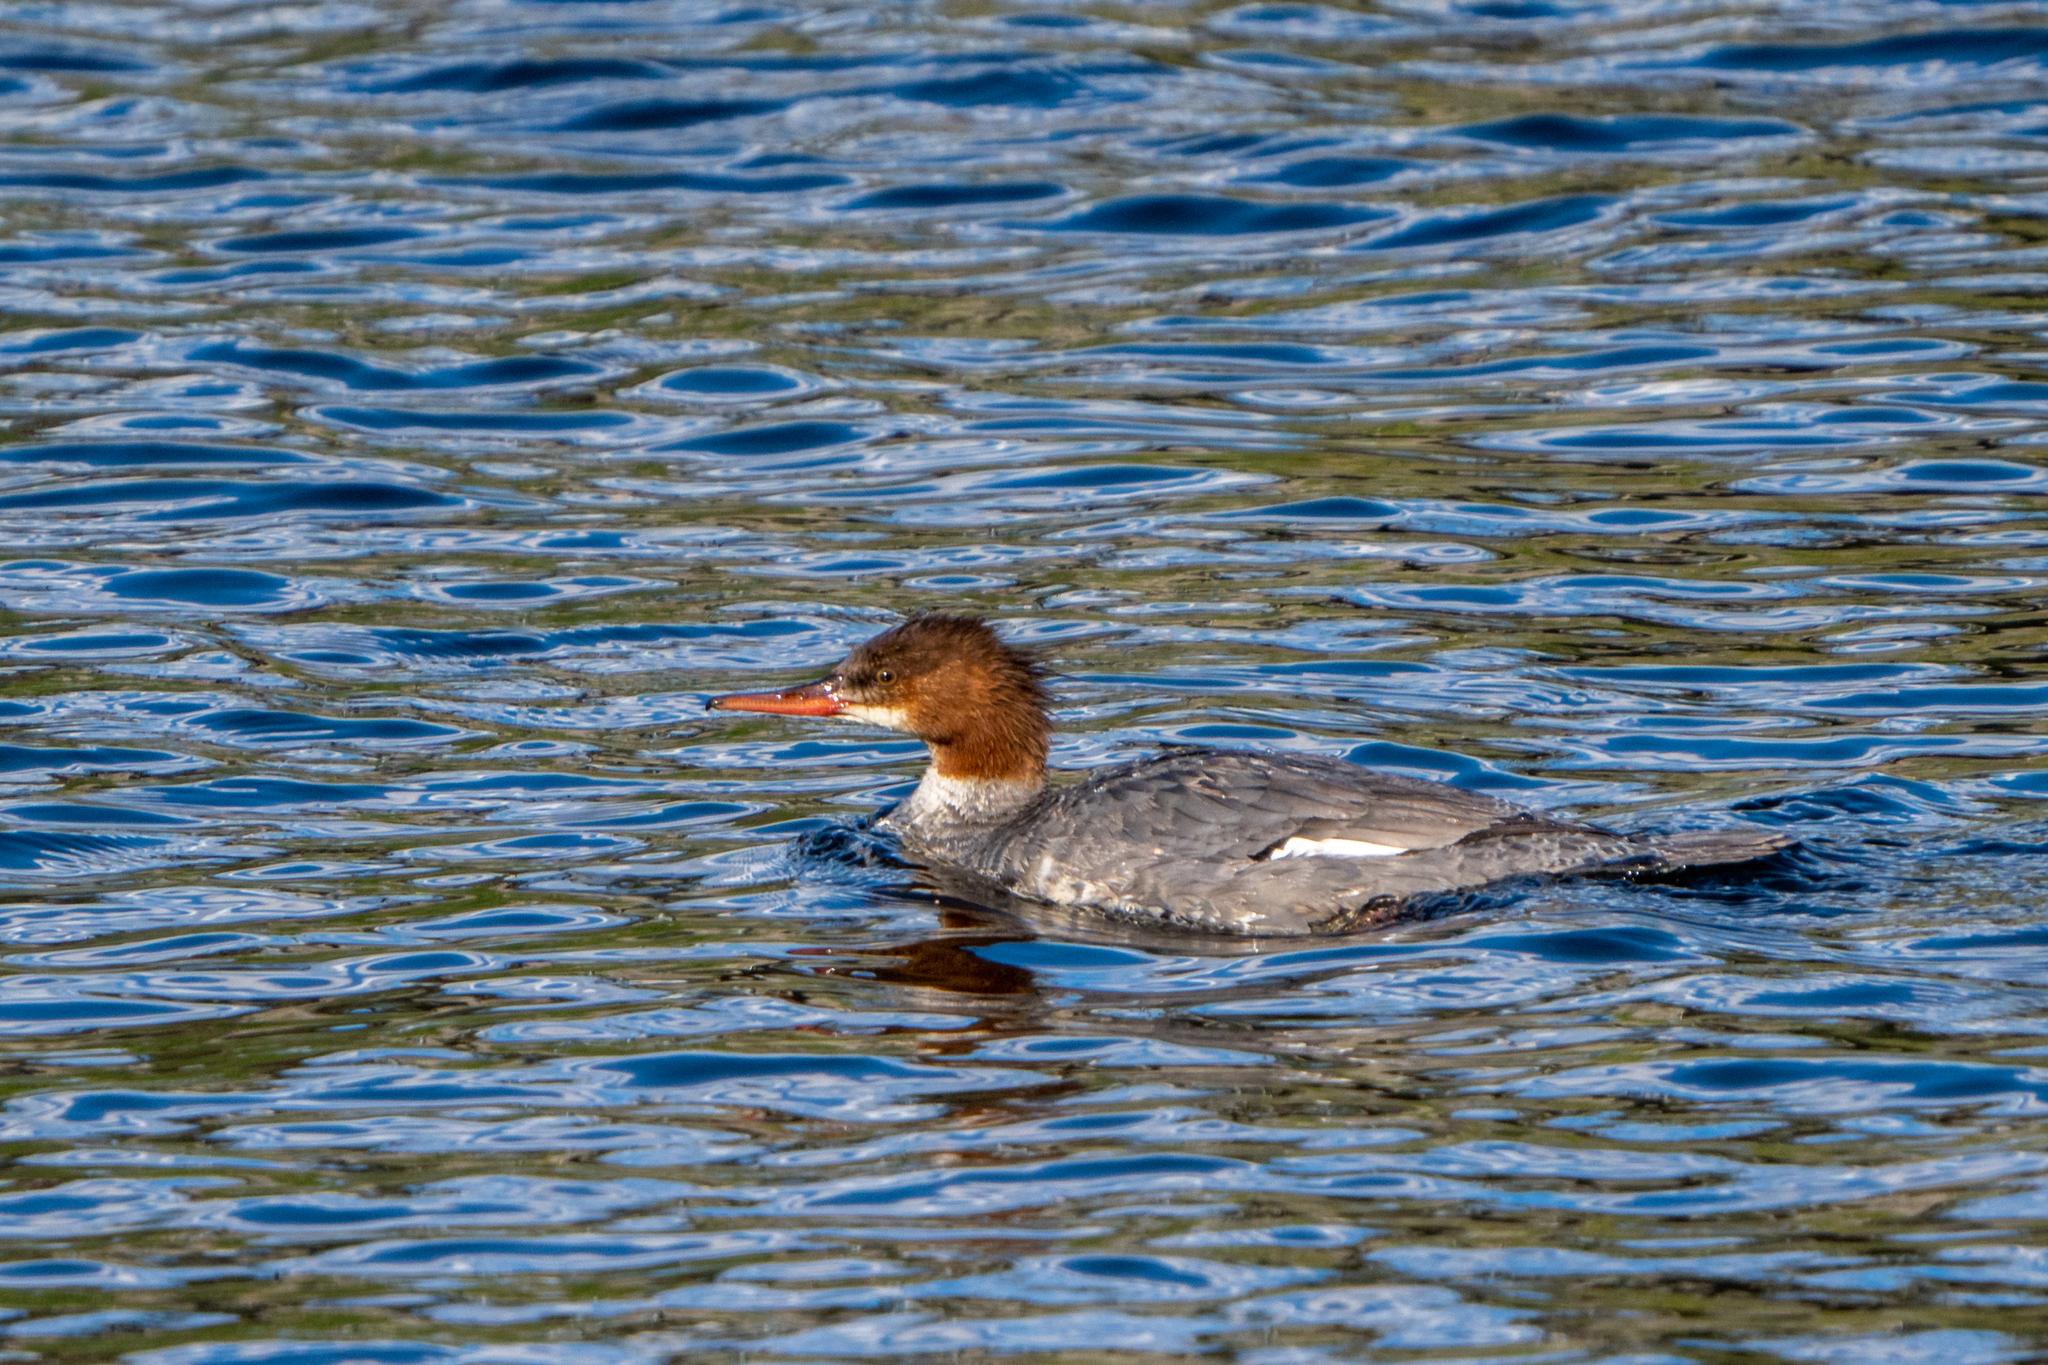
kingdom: Animalia
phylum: Chordata
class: Aves
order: Anseriformes
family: Anatidae
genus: Mergus
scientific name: Mergus merganser
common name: Common merganser
